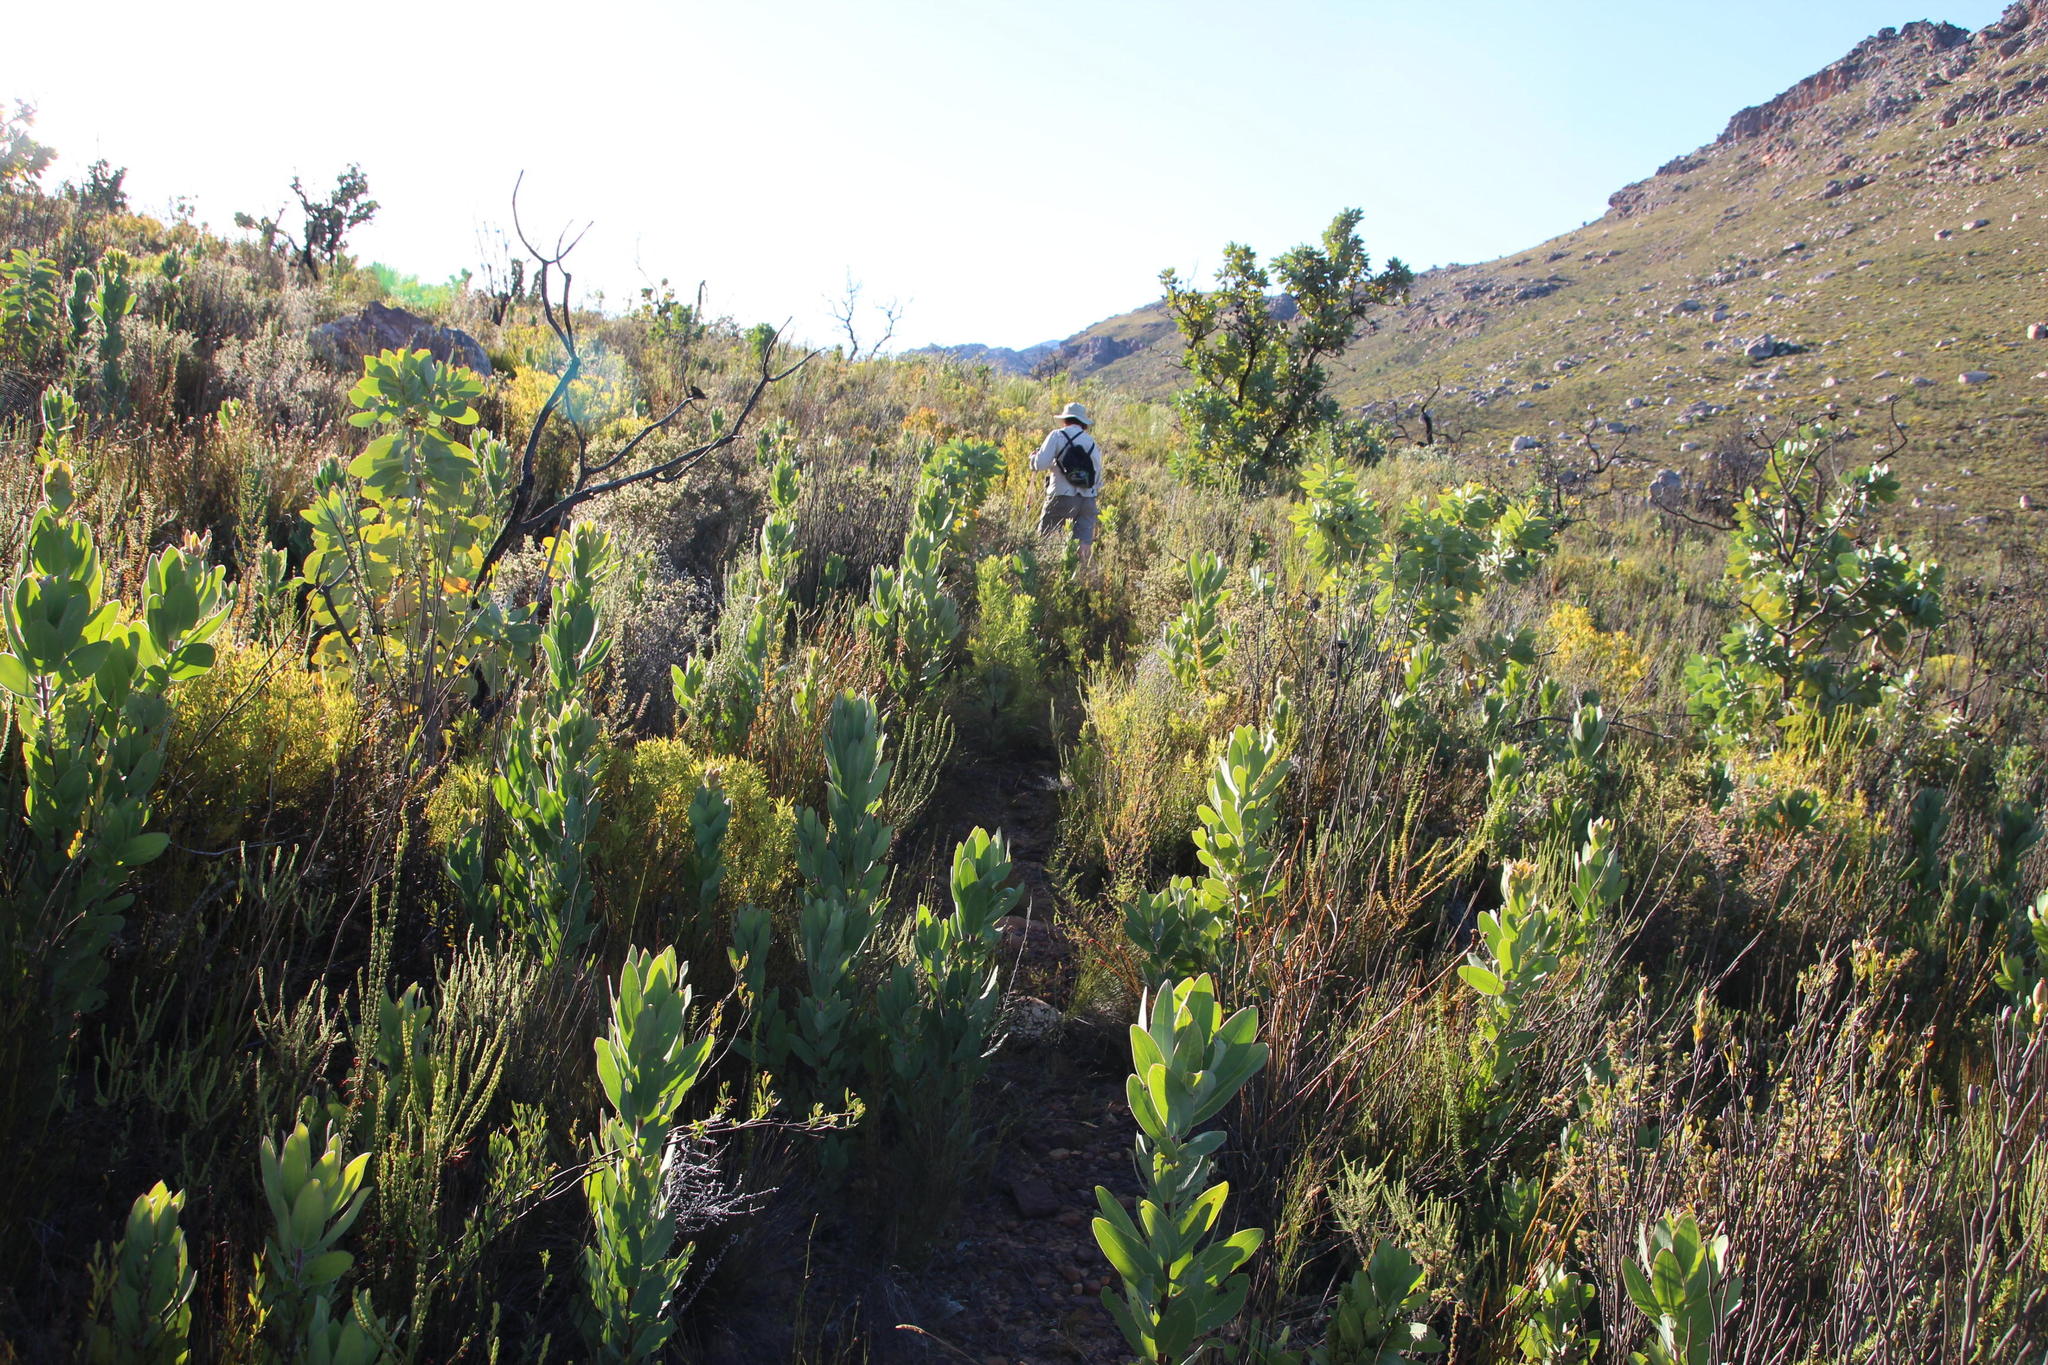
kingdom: Plantae
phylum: Tracheophyta
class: Magnoliopsida
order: Proteales
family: Proteaceae
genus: Protea
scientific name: Protea laurifolia
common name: Grey-leaf sugarbsh
